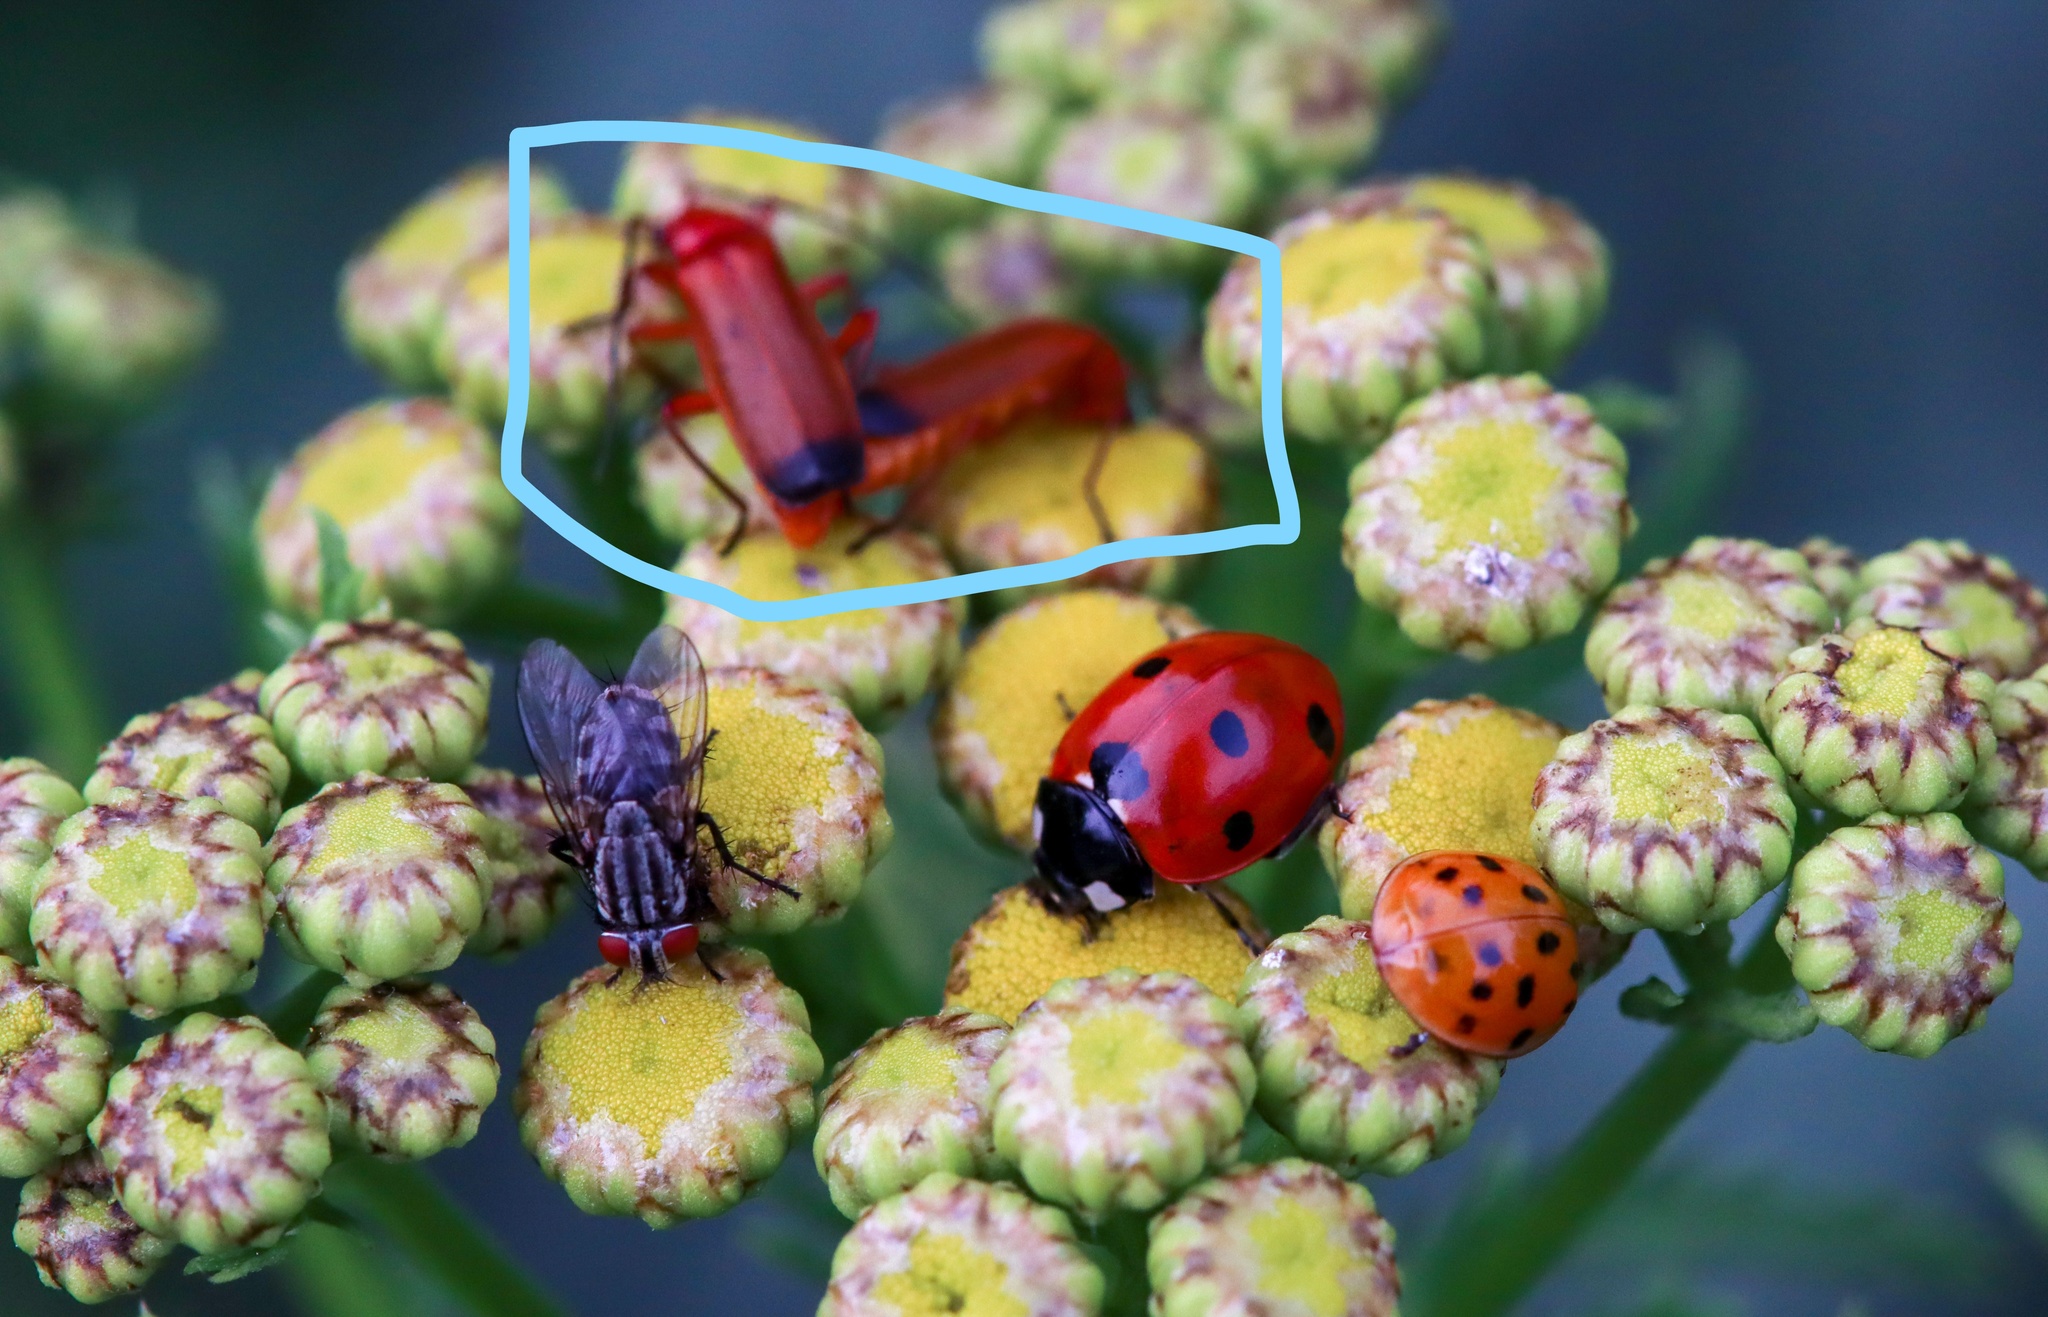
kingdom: Animalia
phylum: Arthropoda
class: Insecta
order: Coleoptera
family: Cantharidae
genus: Rhagonycha
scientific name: Rhagonycha fulva
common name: Common red soldier beetle
